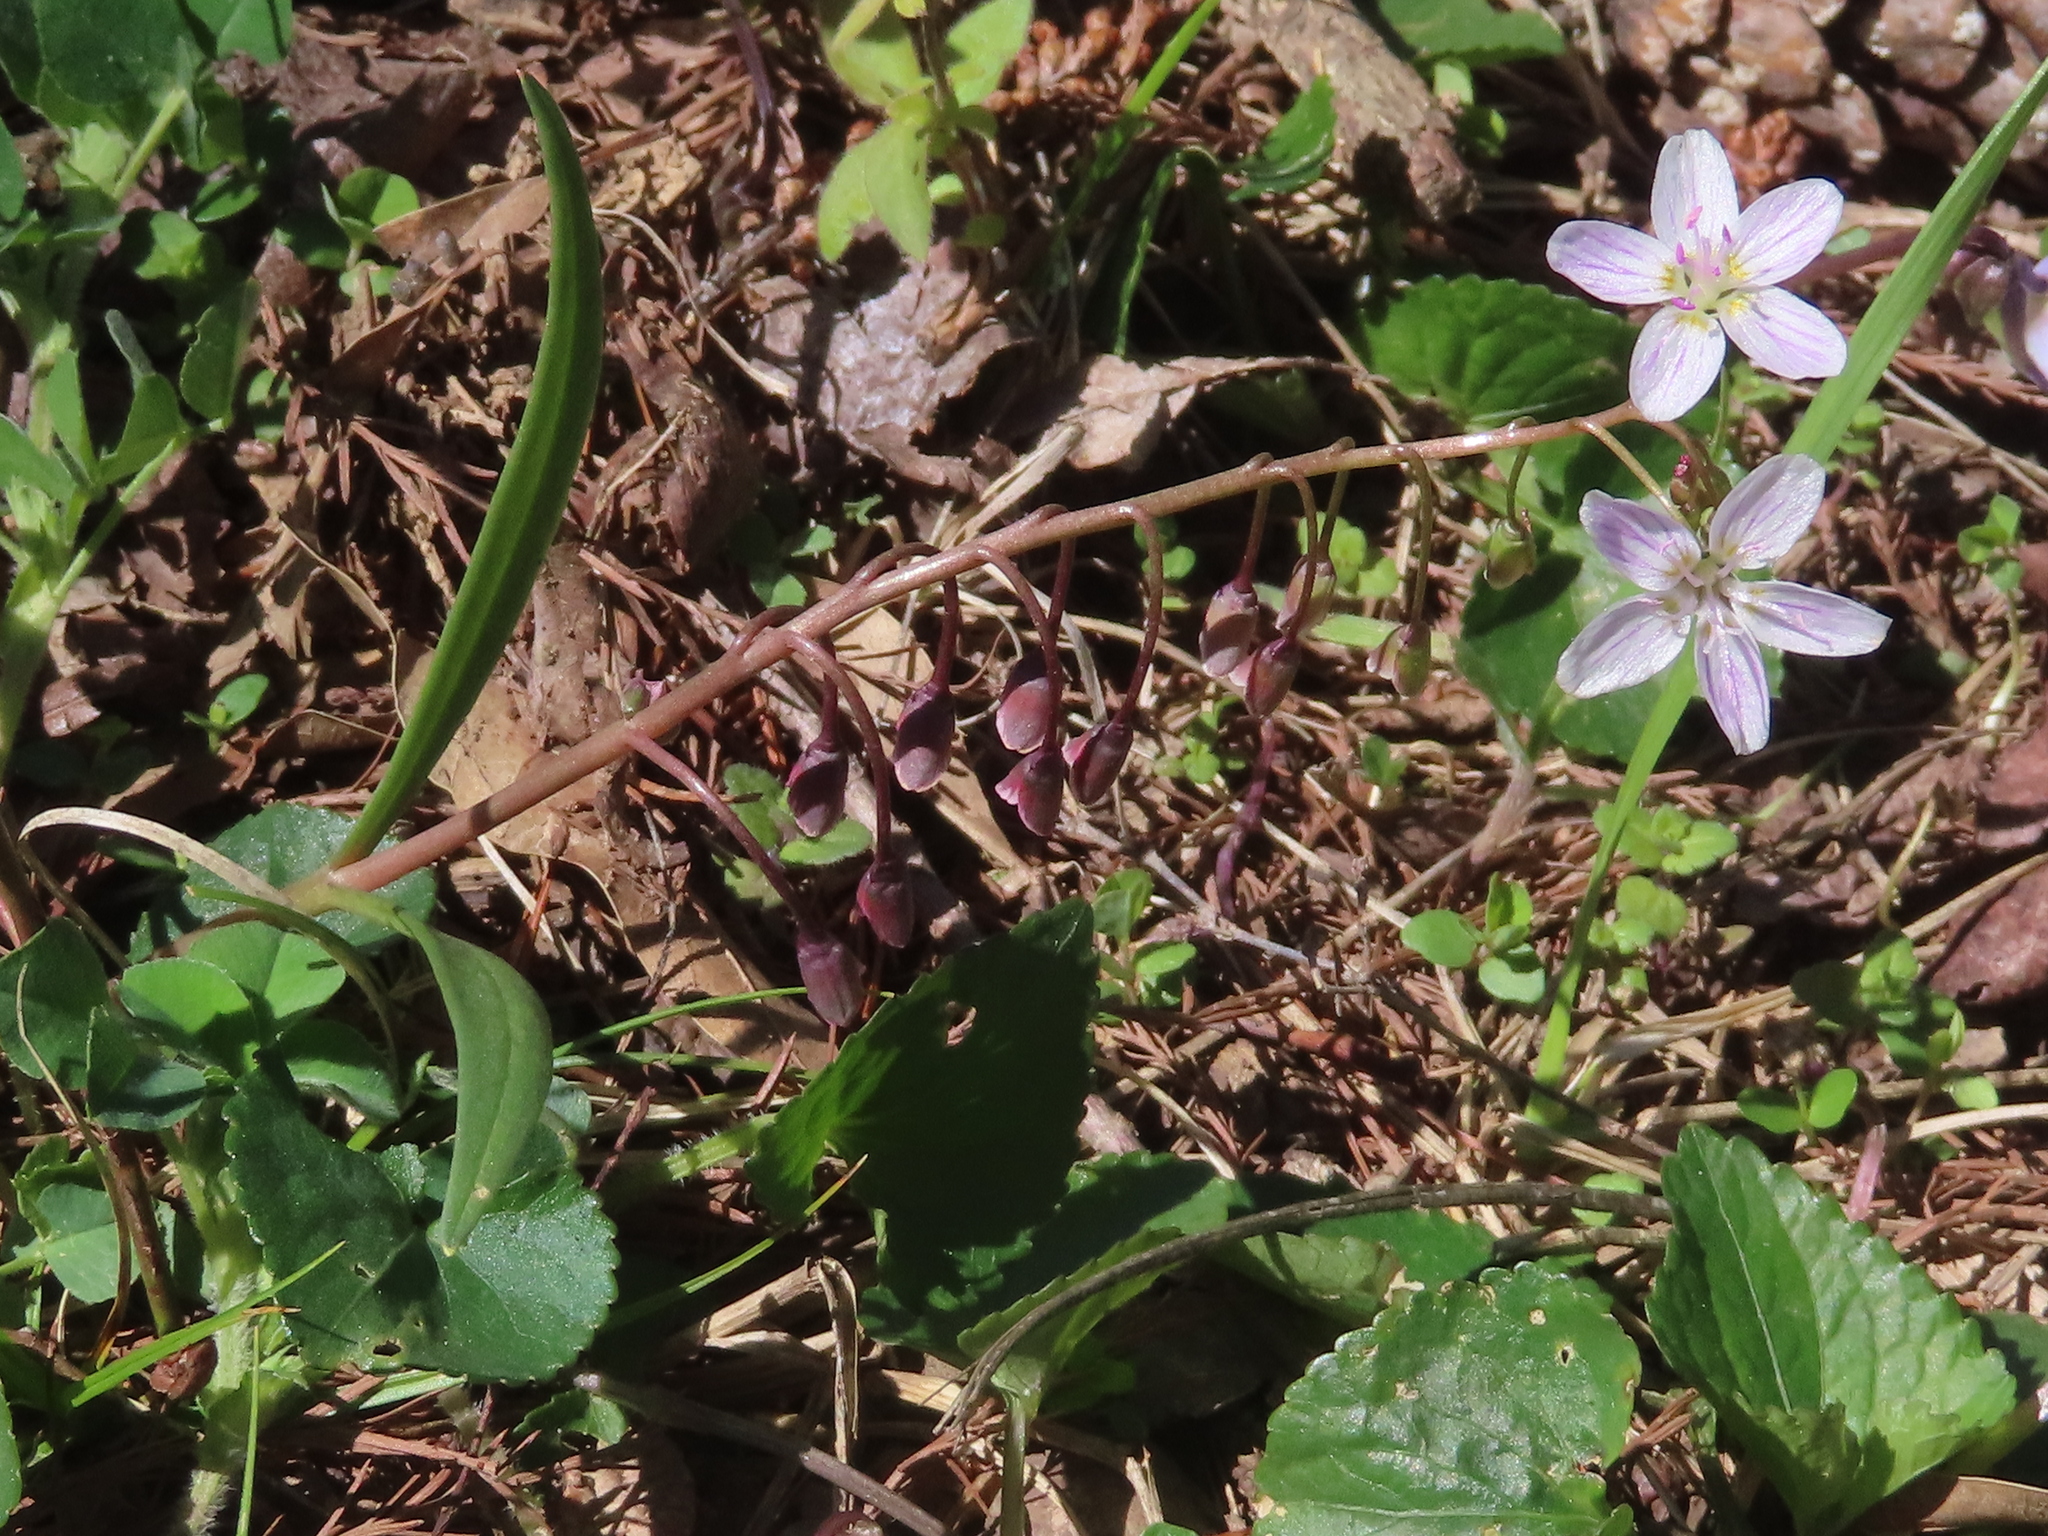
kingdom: Plantae
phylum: Tracheophyta
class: Magnoliopsida
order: Caryophyllales
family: Montiaceae
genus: Claytonia
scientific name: Claytonia virginica
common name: Virginia springbeauty
